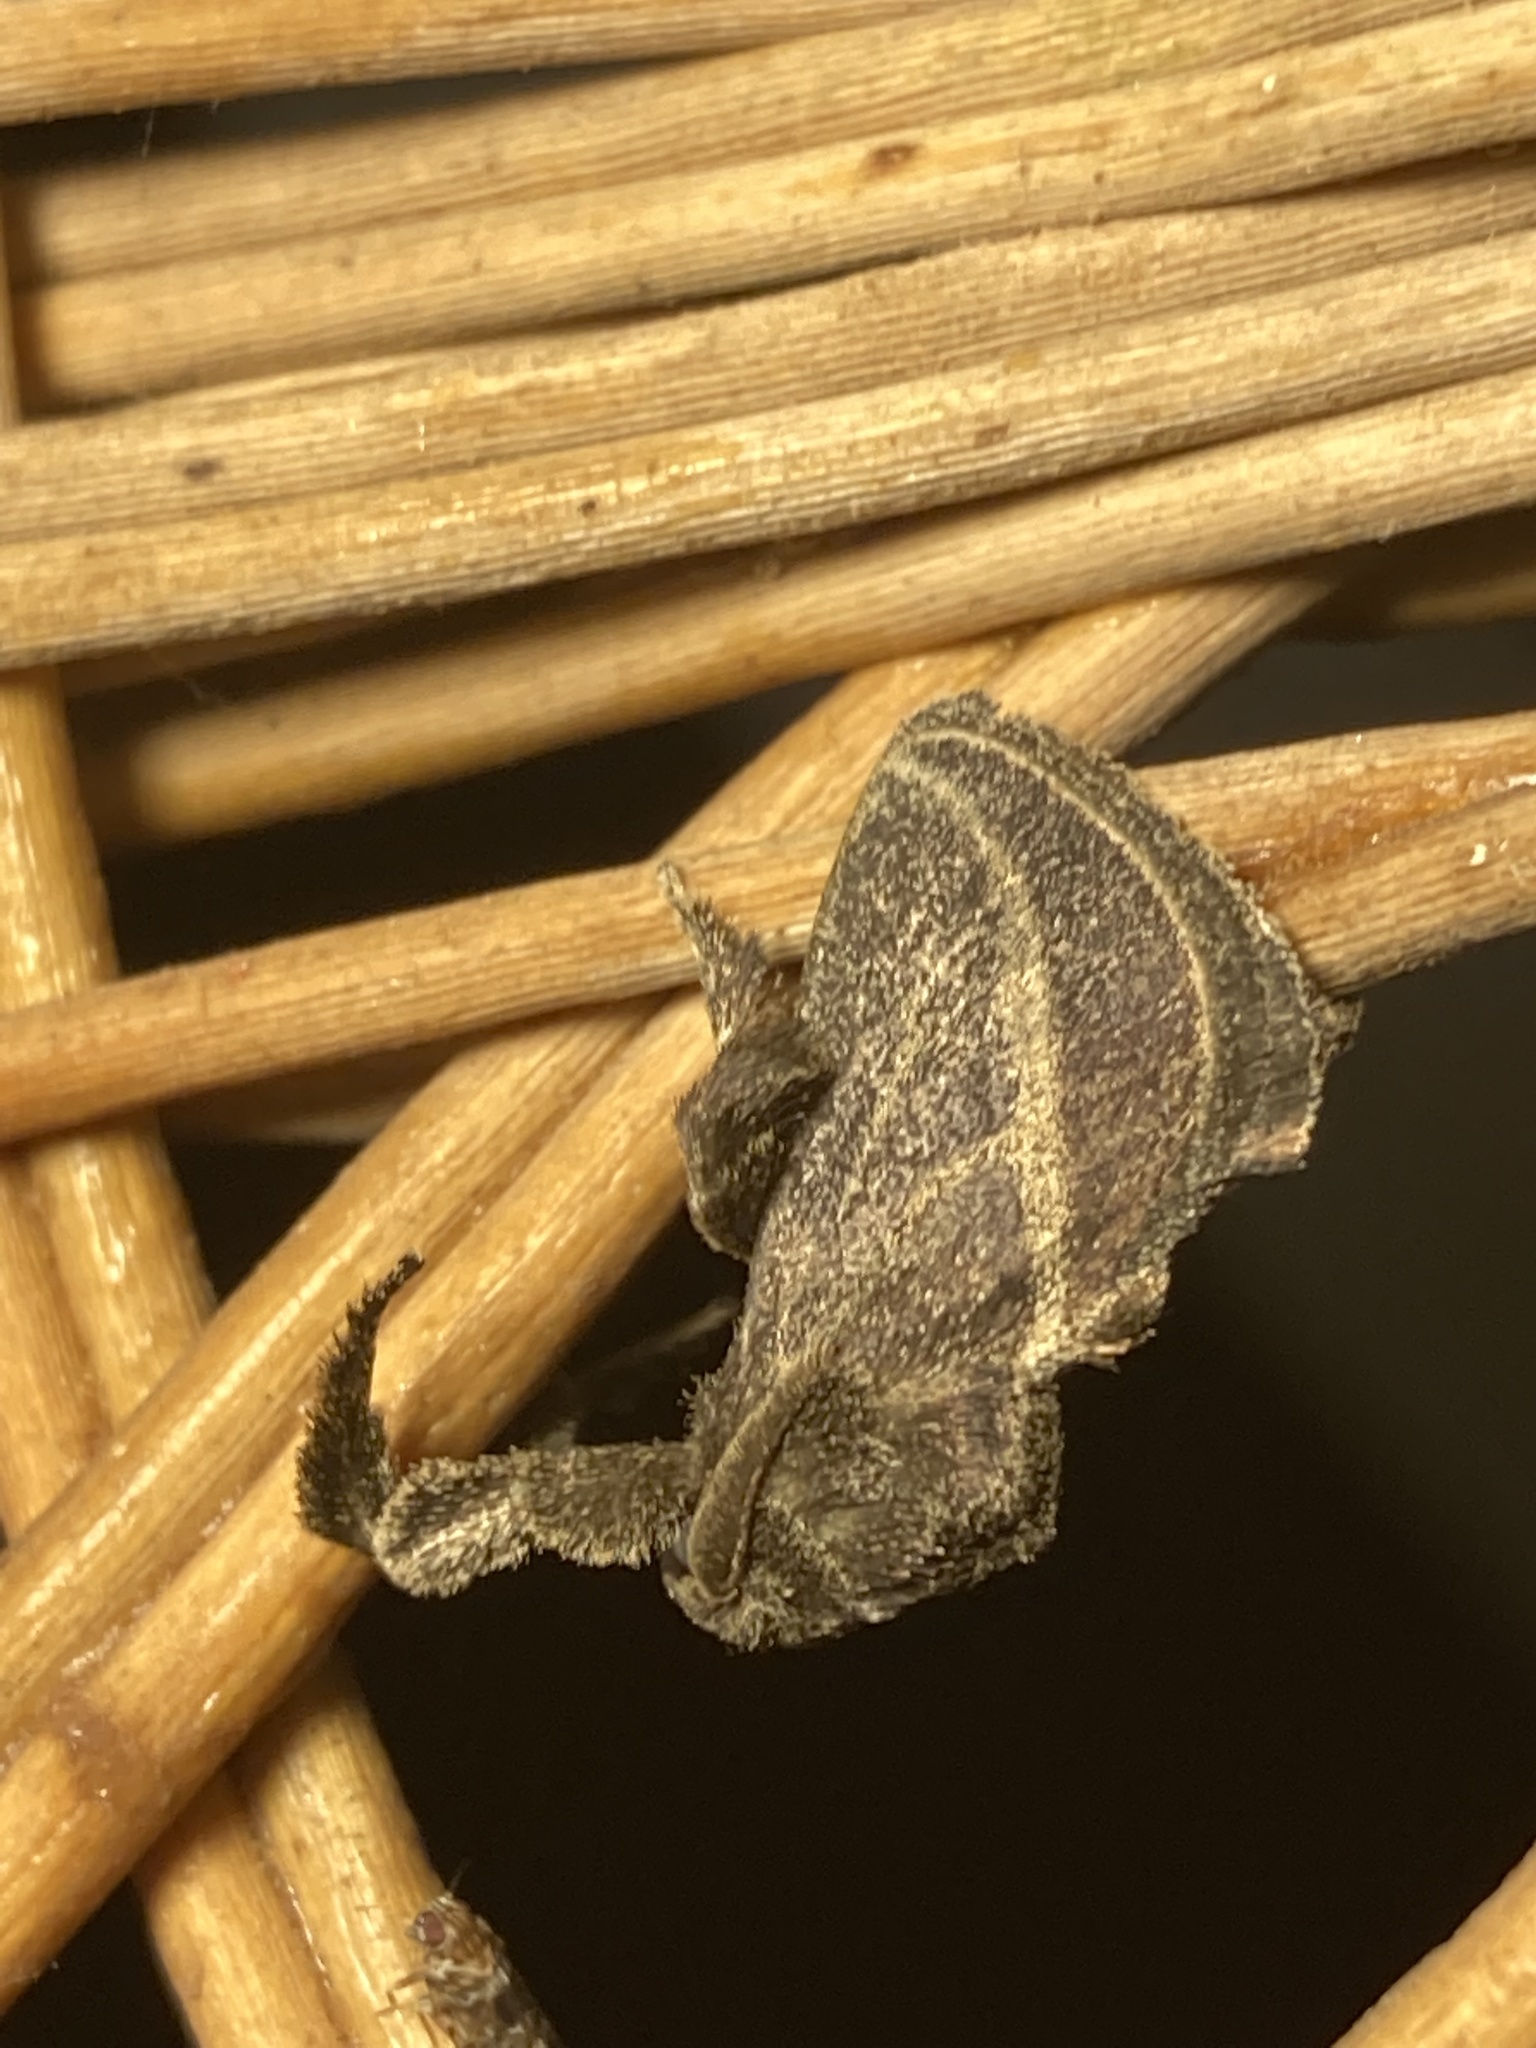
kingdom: Animalia
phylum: Arthropoda
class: Insecta
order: Lepidoptera
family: Limacodidae
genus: Epiperola
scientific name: Epiperola vafera
